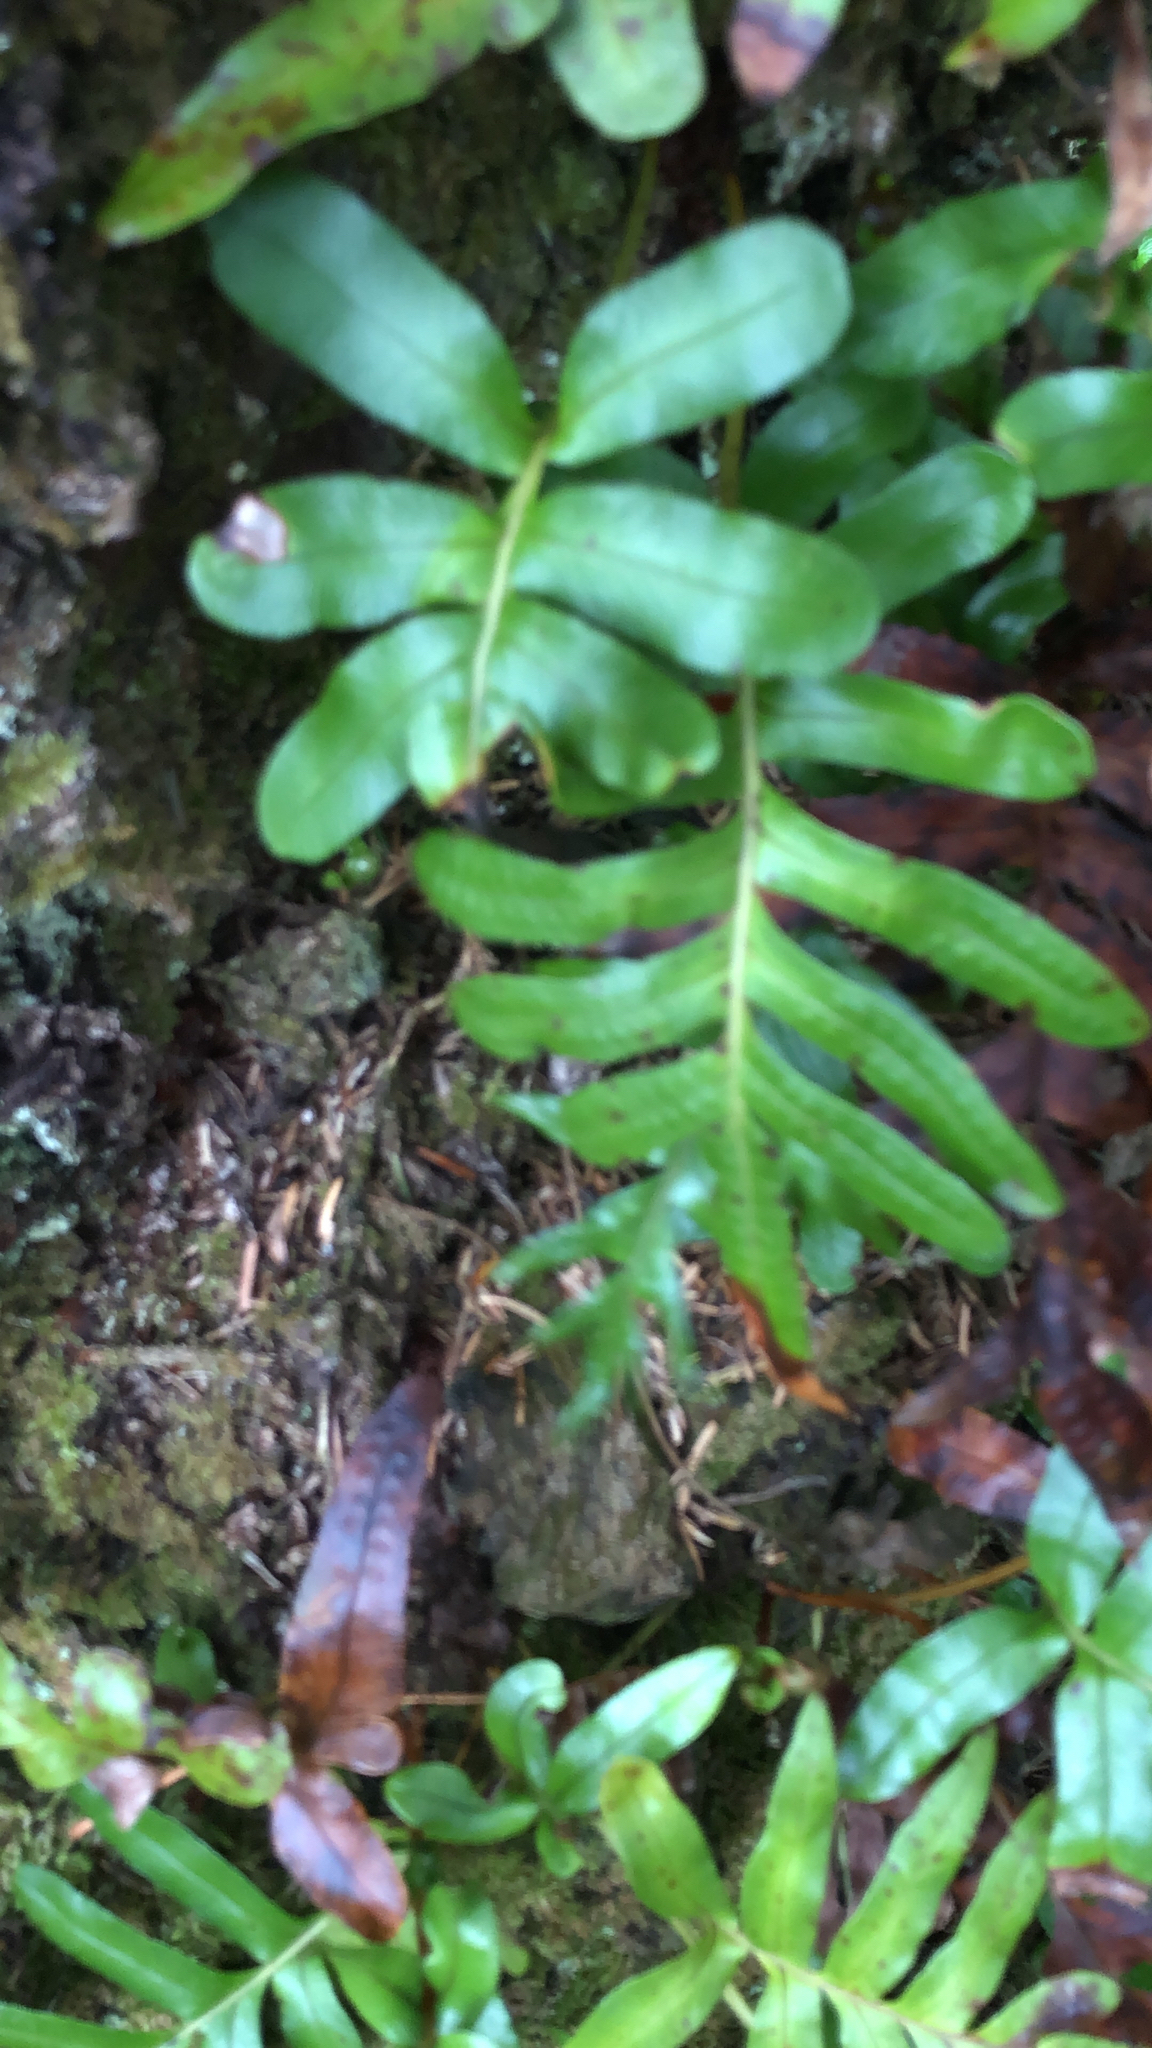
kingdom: Plantae
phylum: Tracheophyta
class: Polypodiopsida
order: Polypodiales
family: Polypodiaceae
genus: Polypodium
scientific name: Polypodium scouleri
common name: Scouler's polypody
